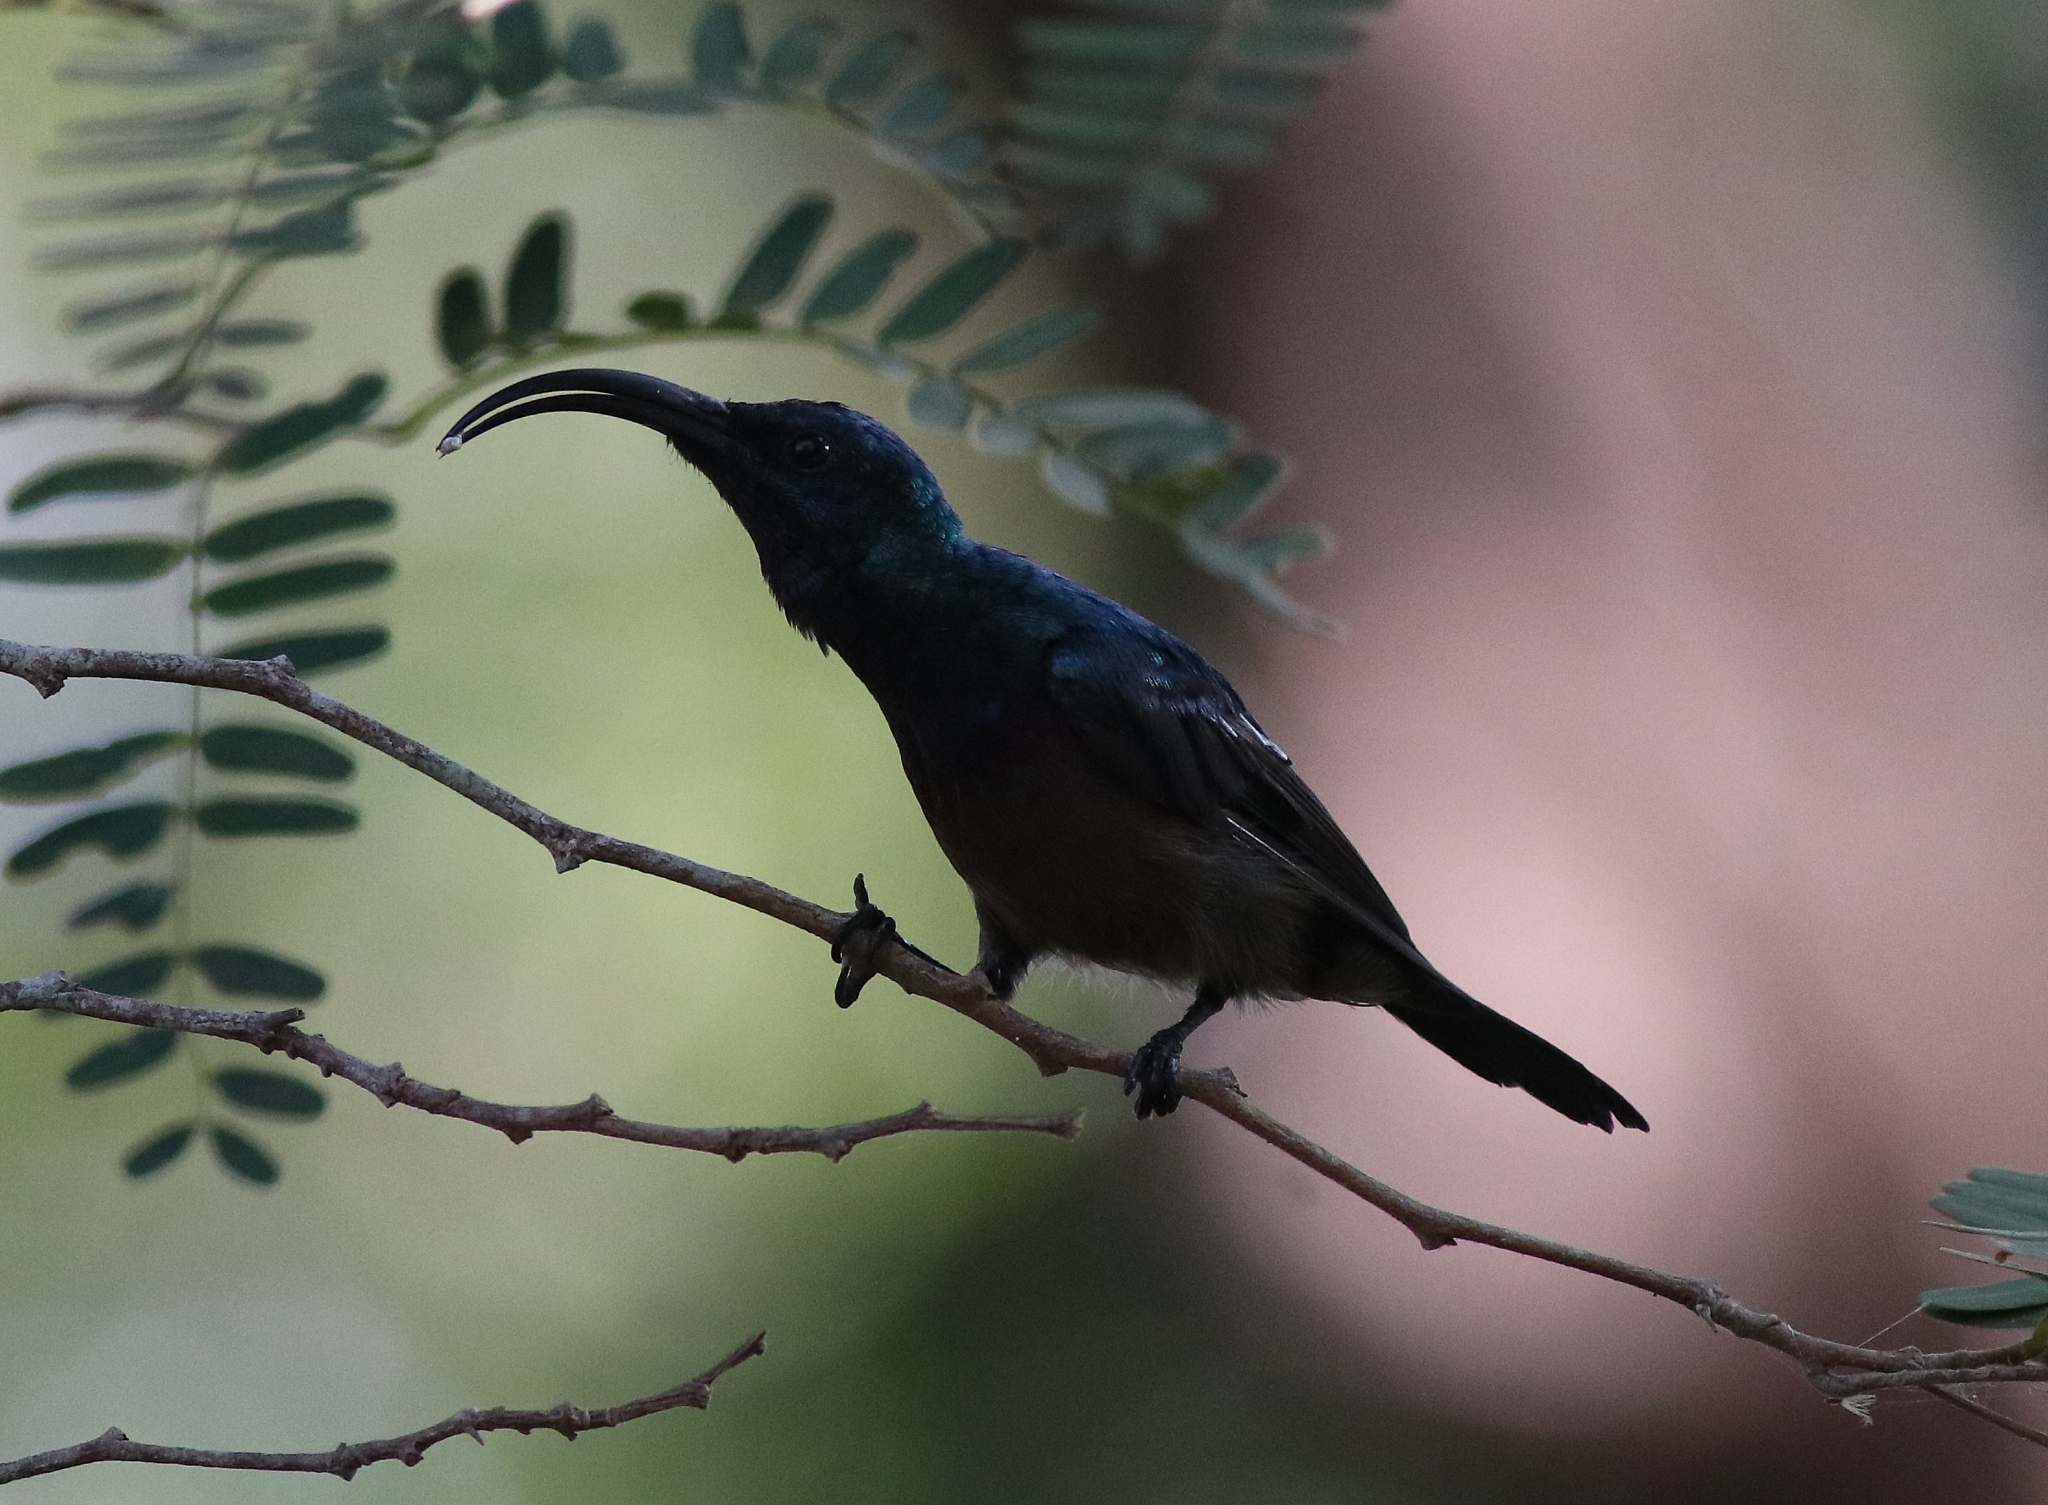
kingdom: Animalia
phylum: Chordata
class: Aves
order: Passeriformes
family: Nectariniidae
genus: Cinnyris
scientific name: Cinnyris lotenius
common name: Loten's sunbird
